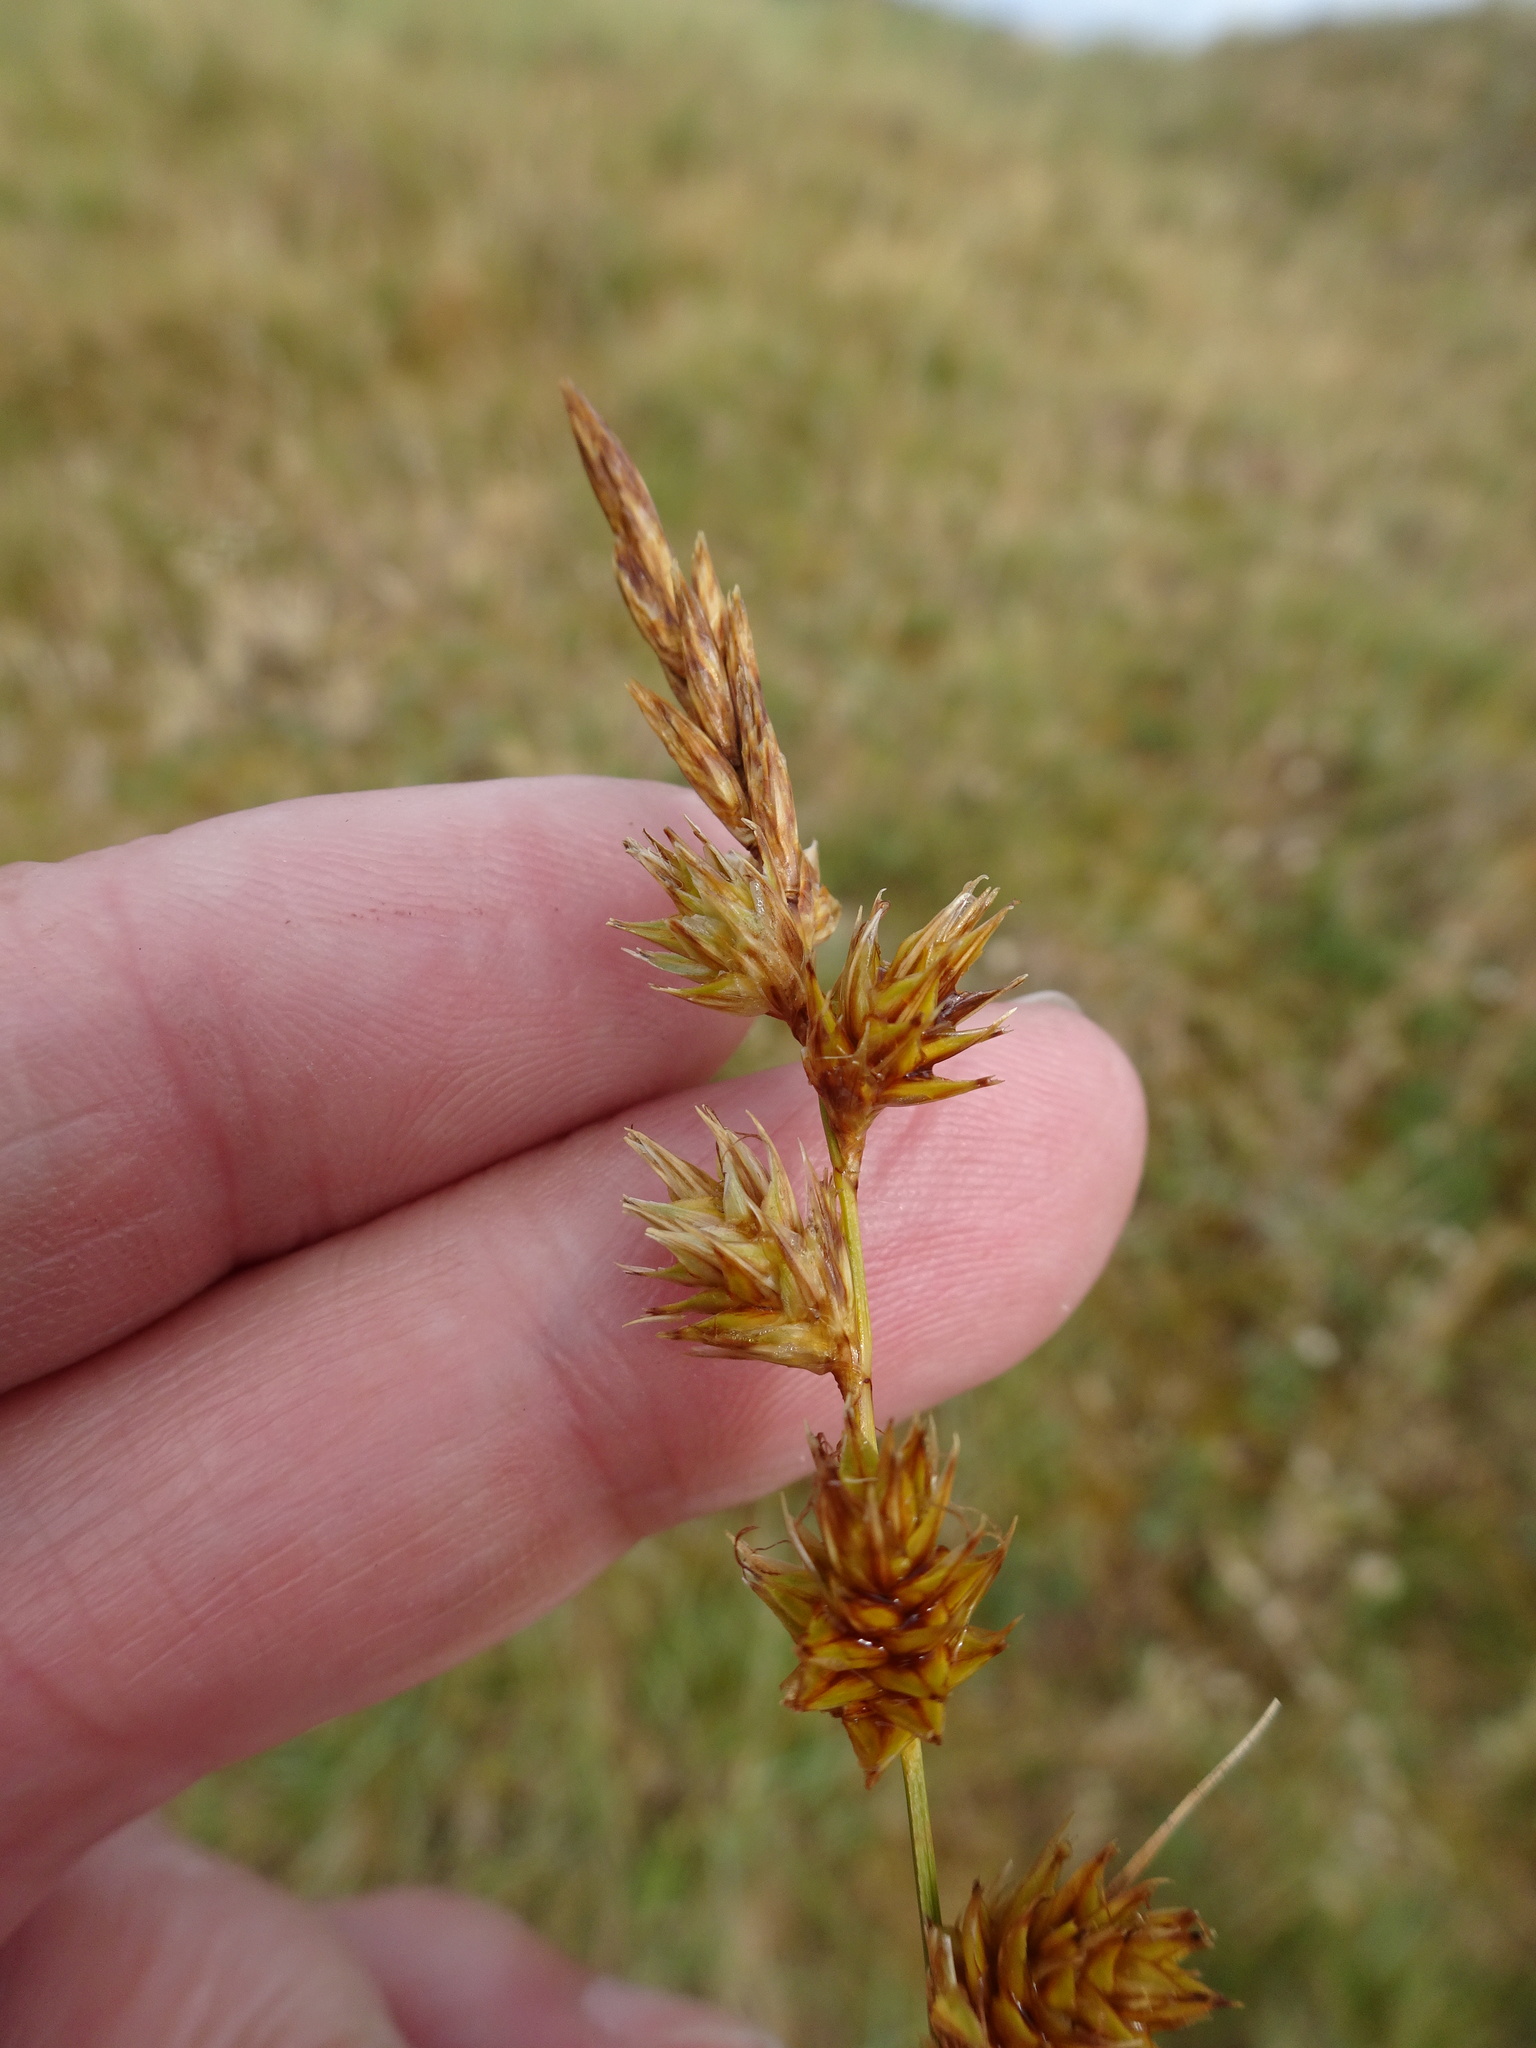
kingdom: Plantae
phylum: Tracheophyta
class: Liliopsida
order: Poales
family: Cyperaceae
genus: Carex
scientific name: Carex arenaria
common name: Sand sedge
